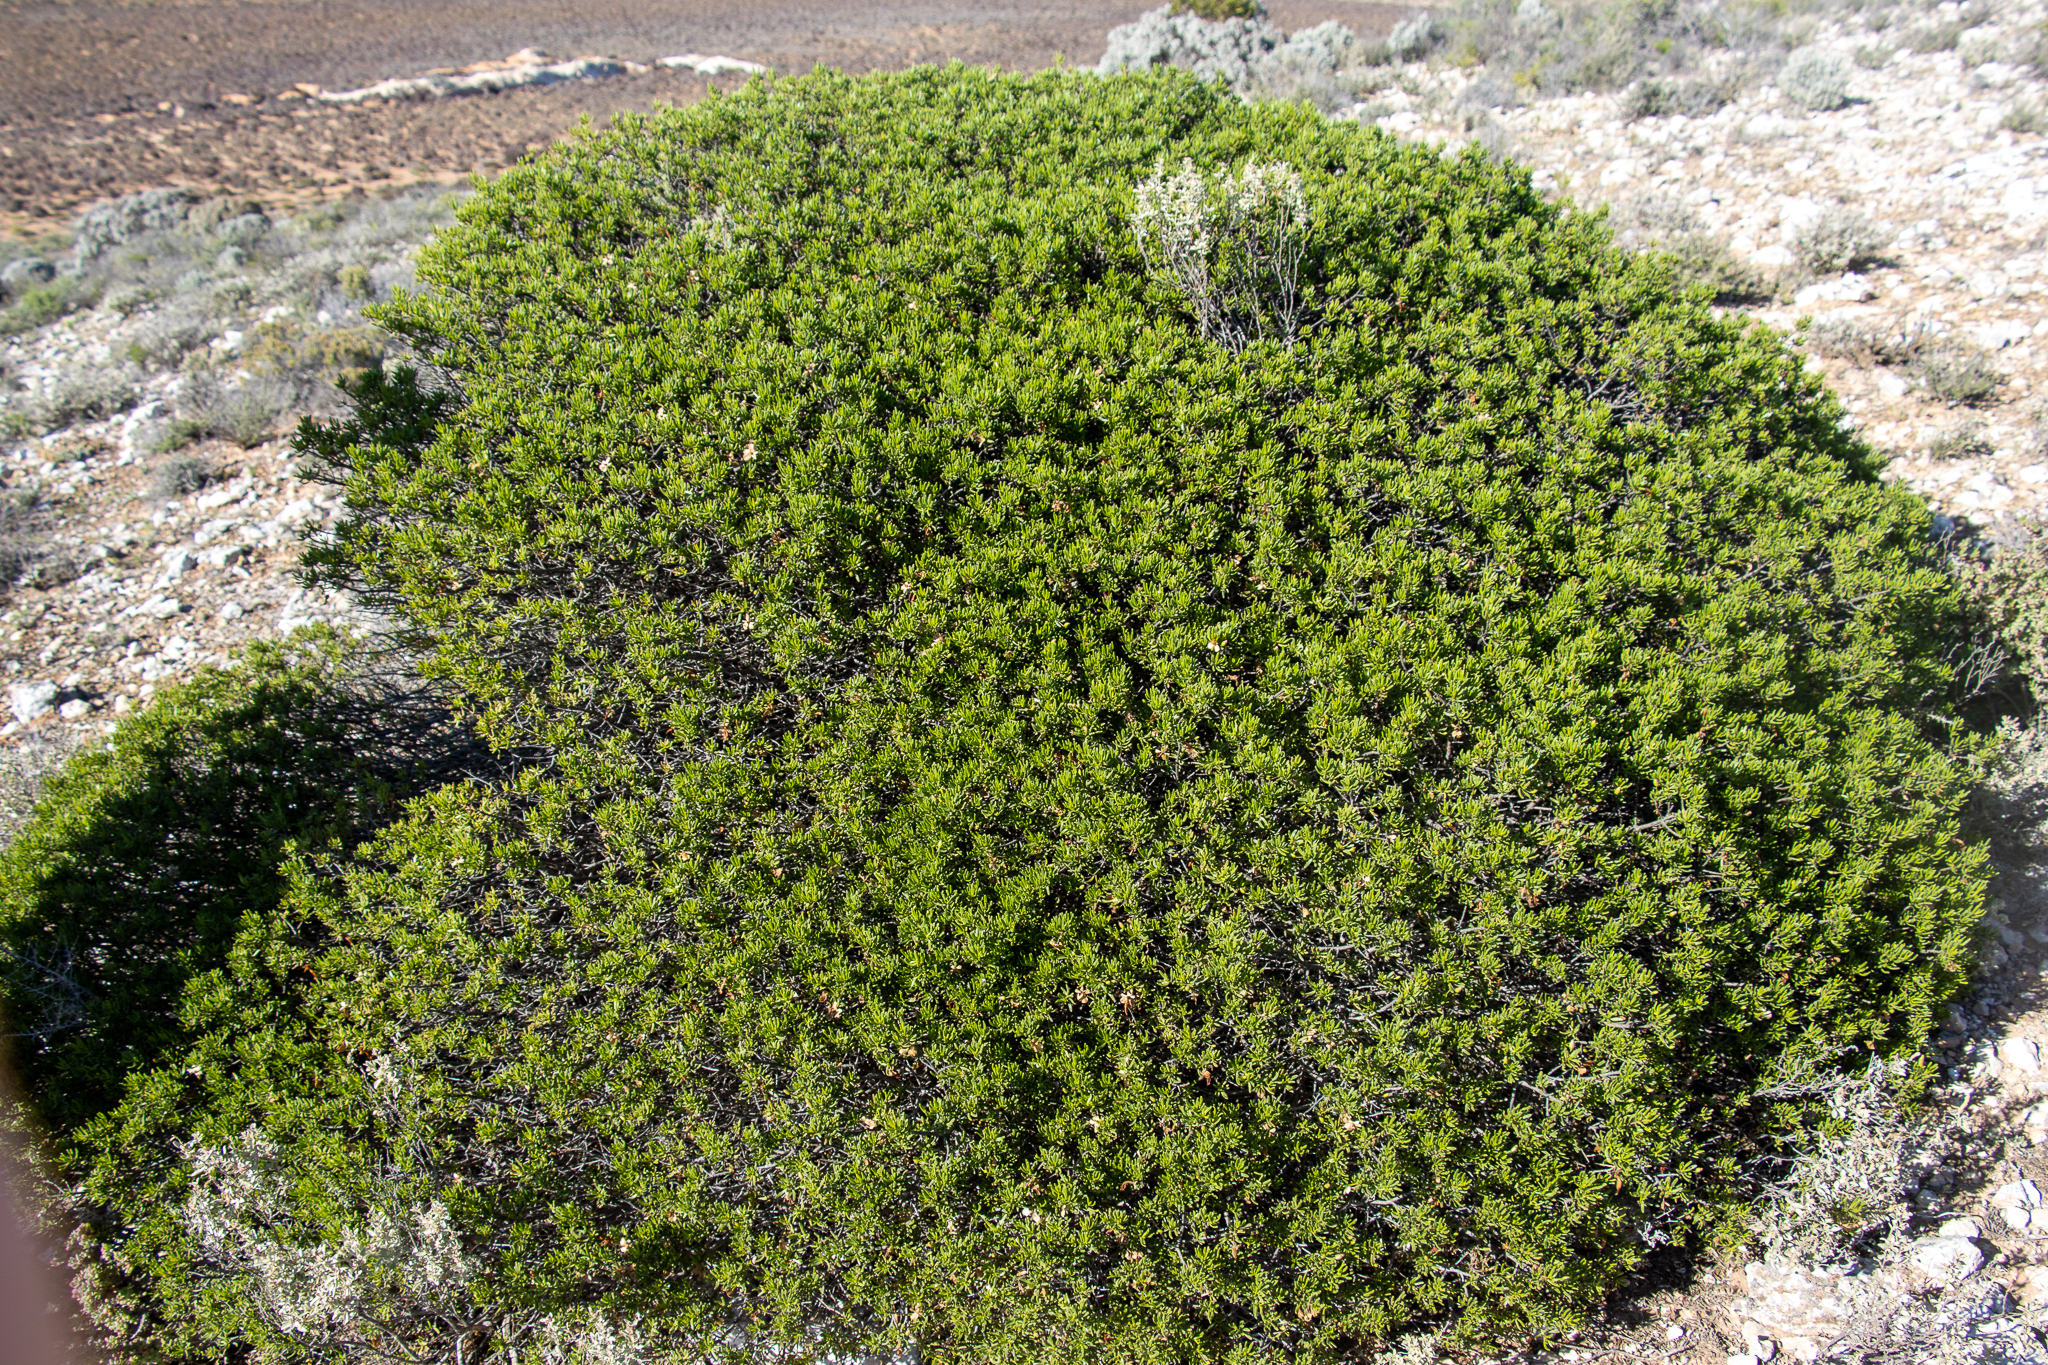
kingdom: Plantae
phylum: Tracheophyta
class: Magnoliopsida
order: Lamiales
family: Scrophulariaceae
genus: Eremophila
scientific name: Eremophila alternifolia
